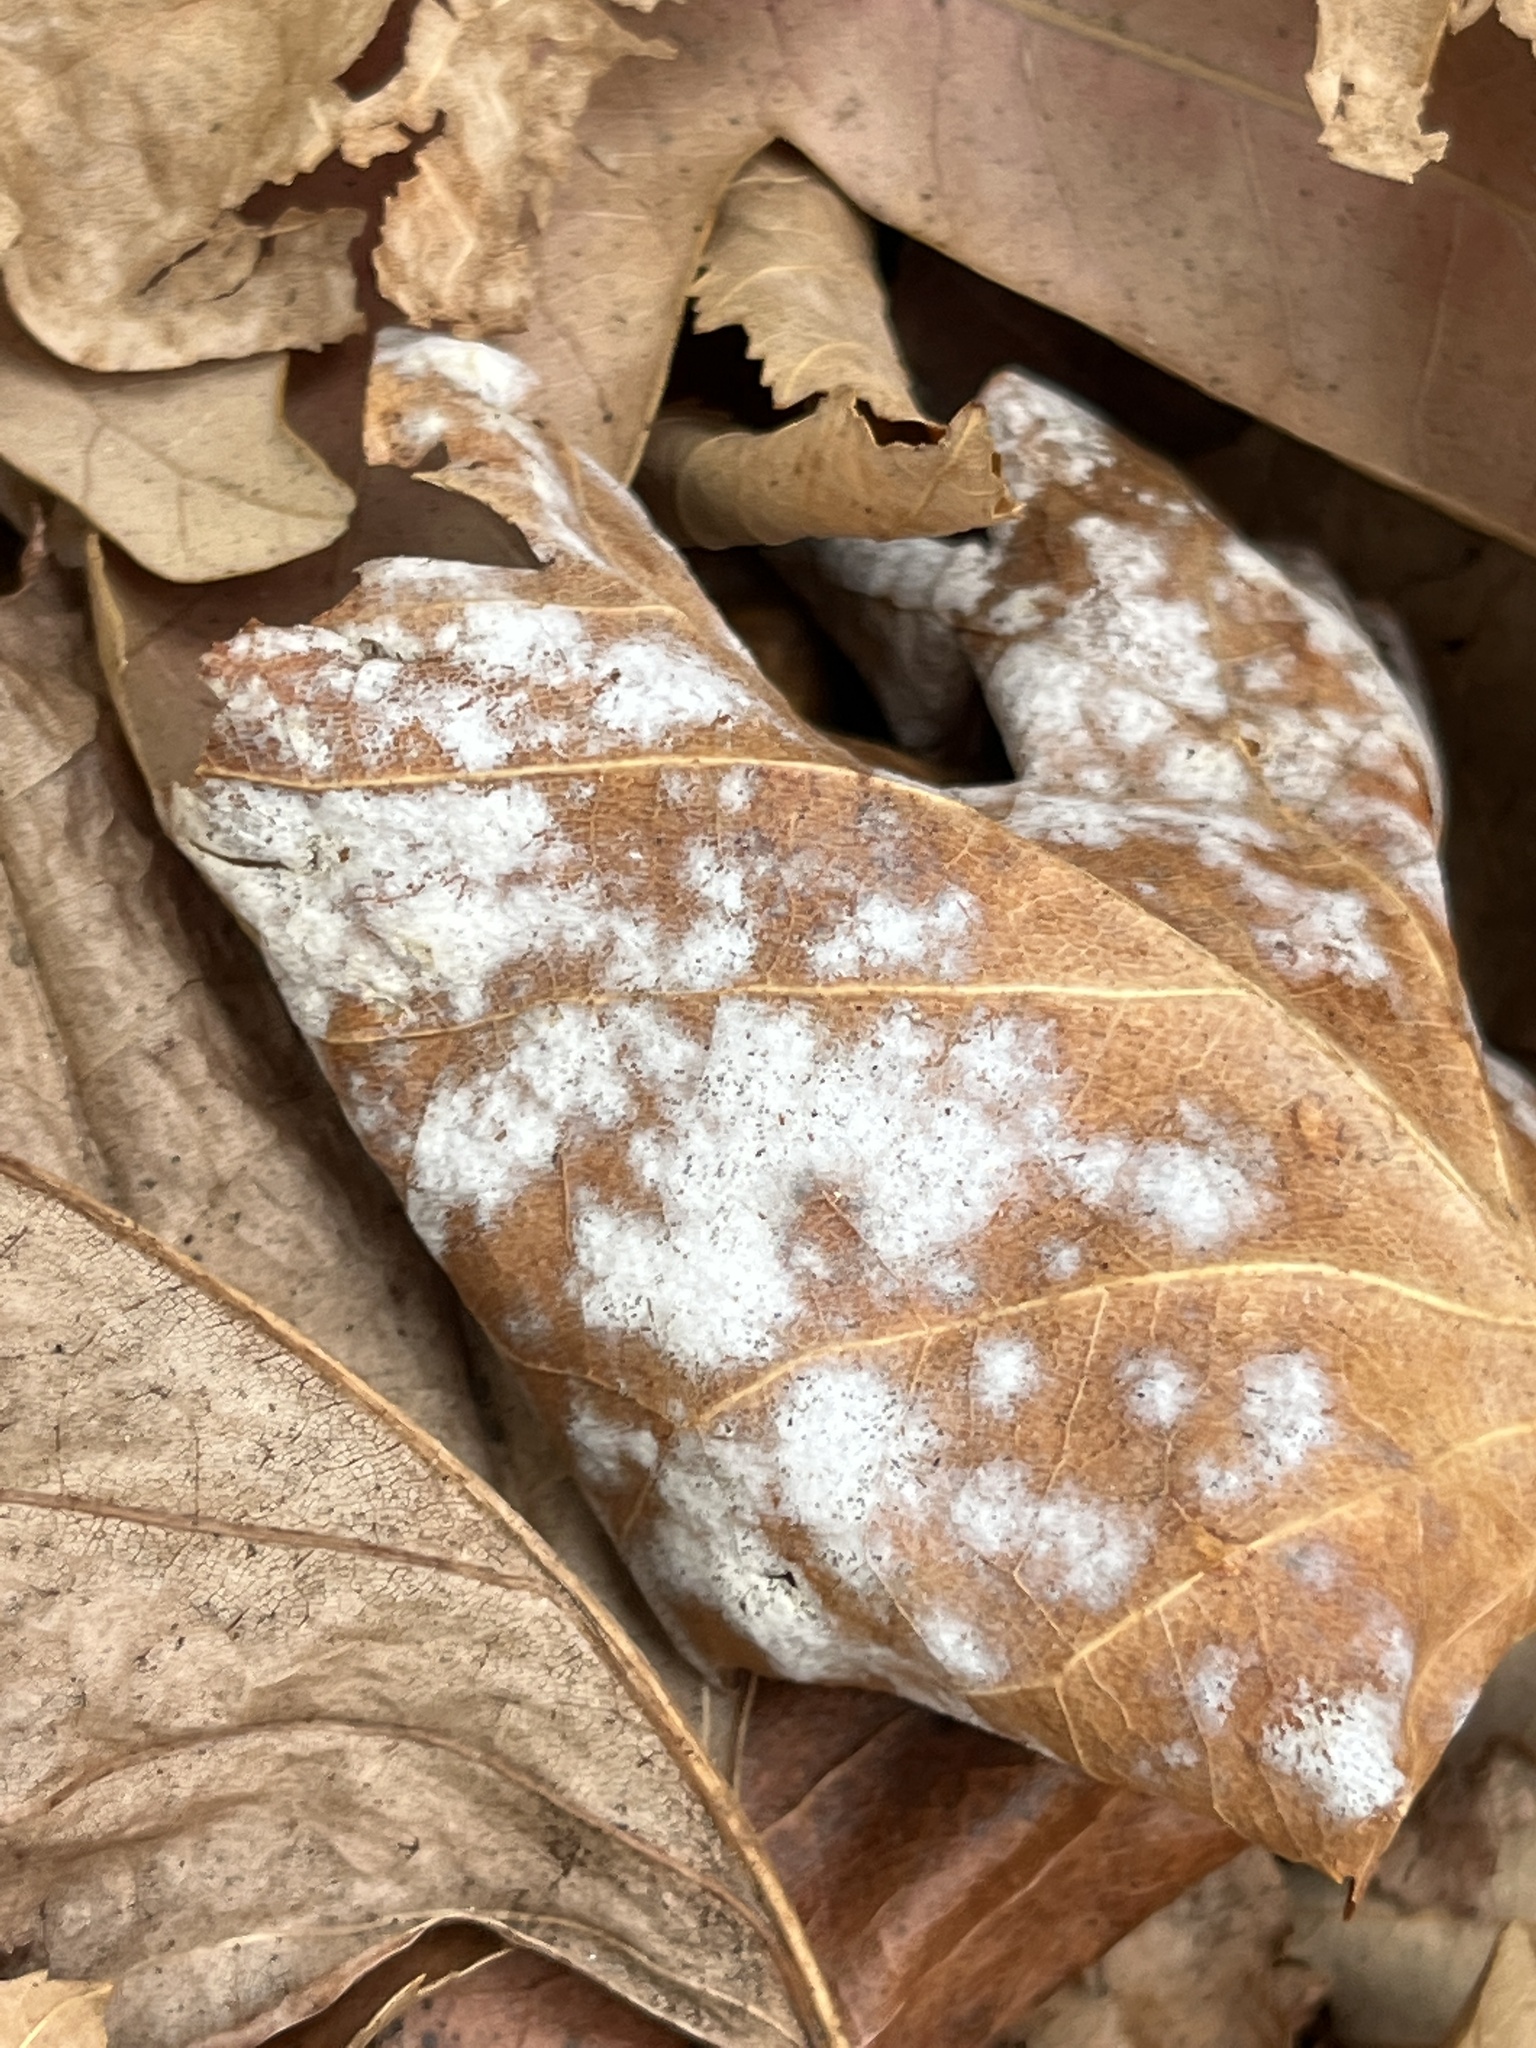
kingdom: Fungi
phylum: Ascomycota
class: Leotiomycetes
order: Helotiales
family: Erysiphaceae
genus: Erysiphe
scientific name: Erysiphe liriodendri
